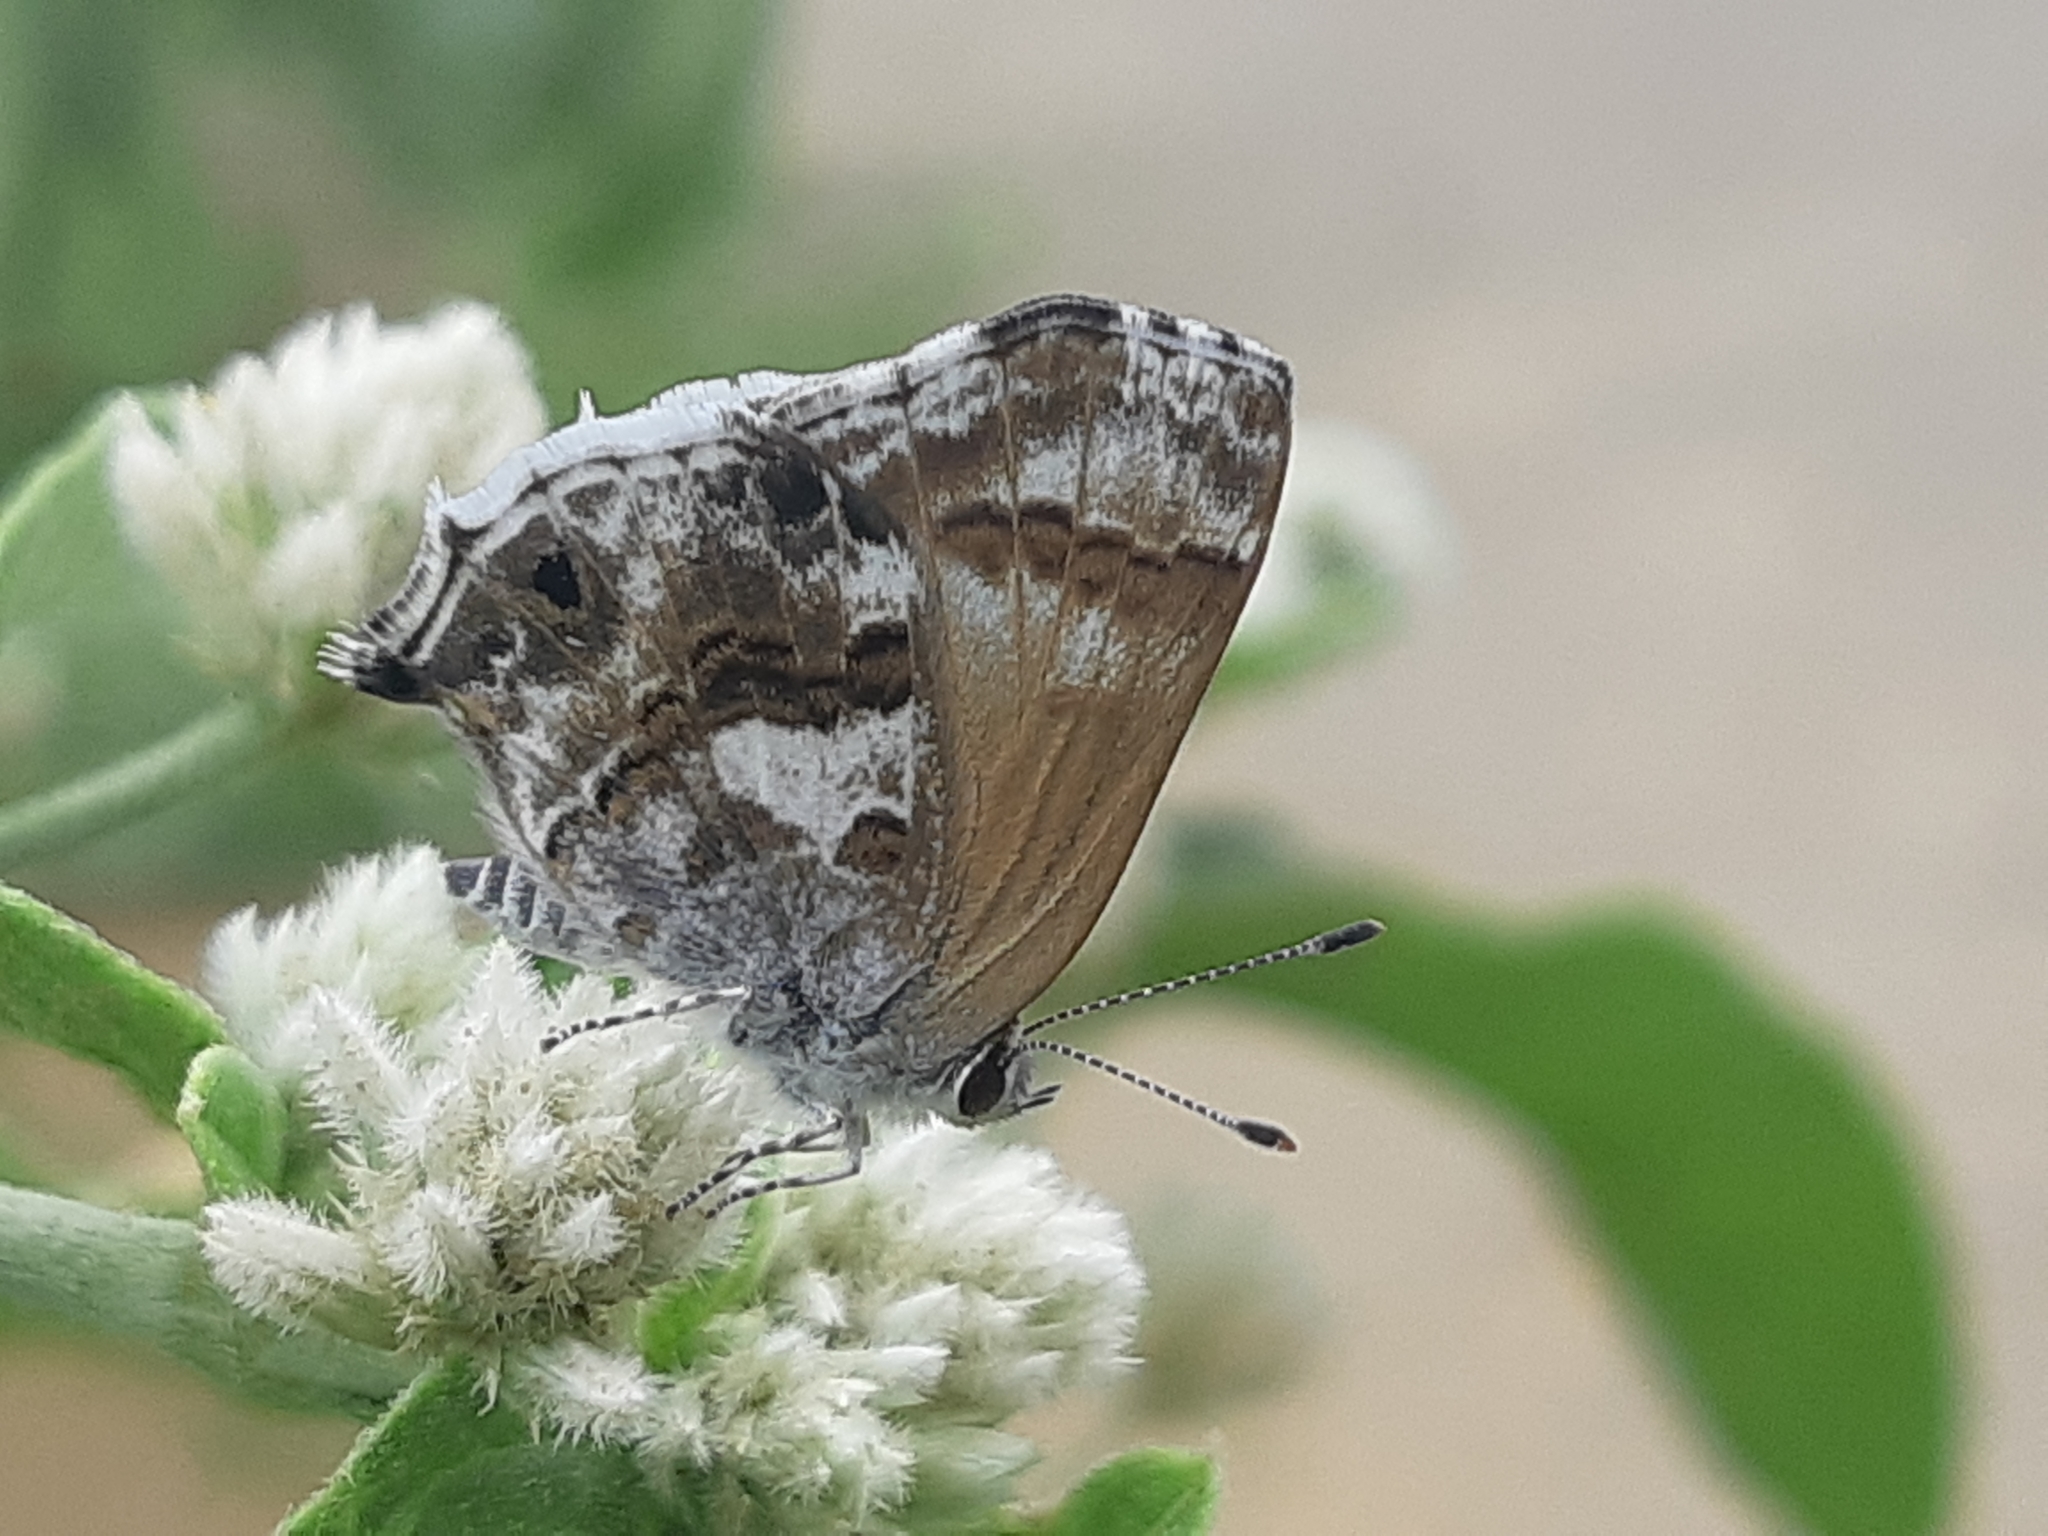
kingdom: Animalia
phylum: Arthropoda
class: Insecta
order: Lepidoptera
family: Lycaenidae
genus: Strymon
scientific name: Strymon
